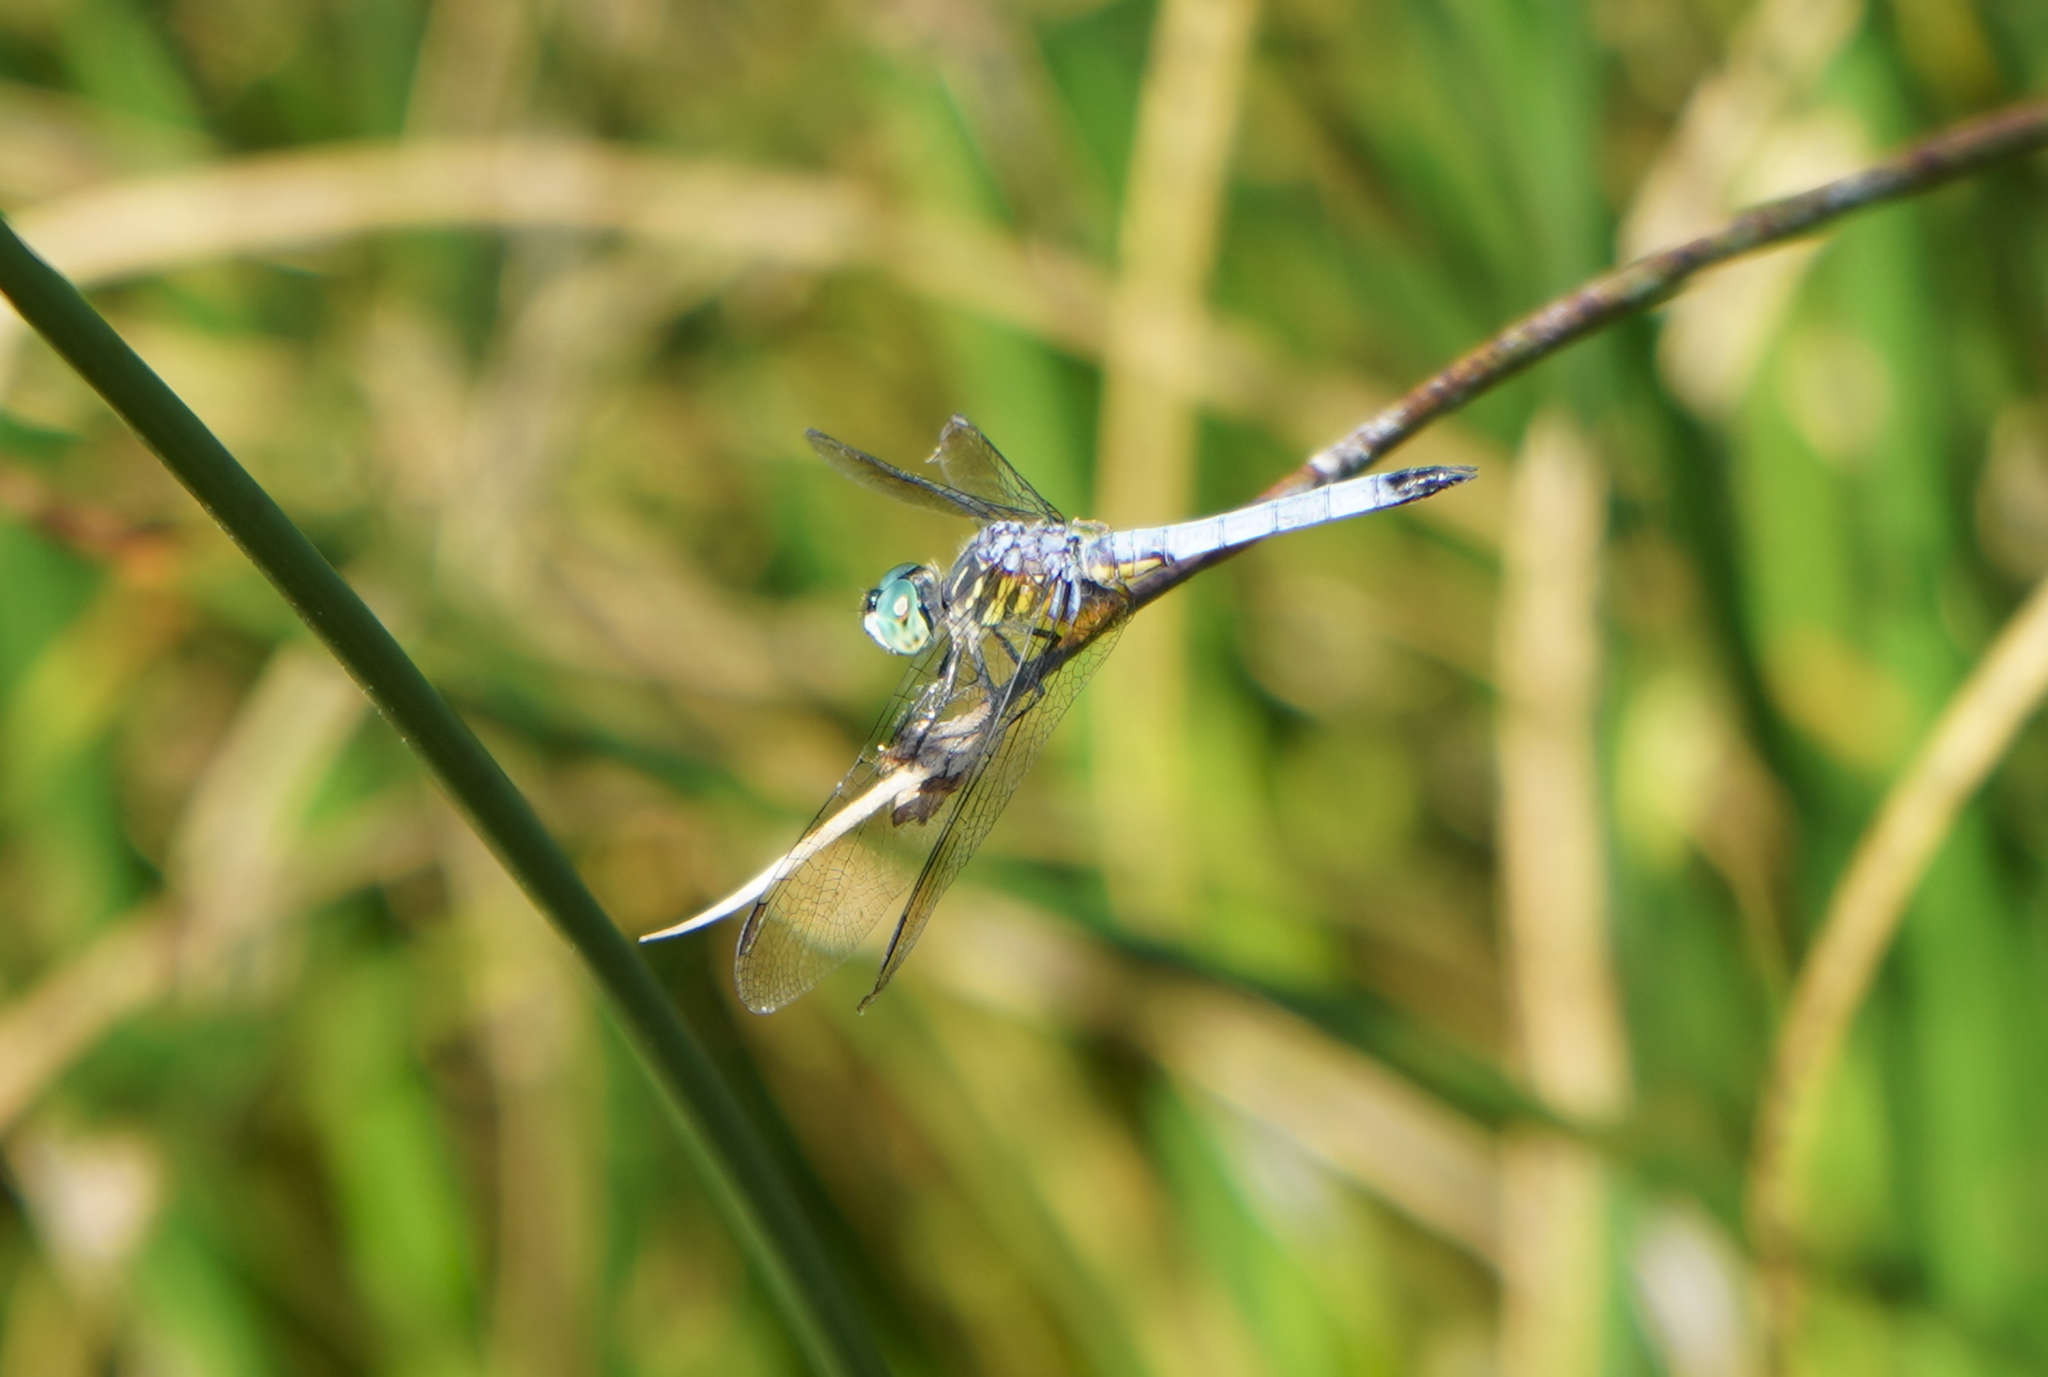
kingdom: Animalia
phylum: Arthropoda
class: Insecta
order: Odonata
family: Libellulidae
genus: Pachydiplax
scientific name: Pachydiplax longipennis
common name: Blue dasher
